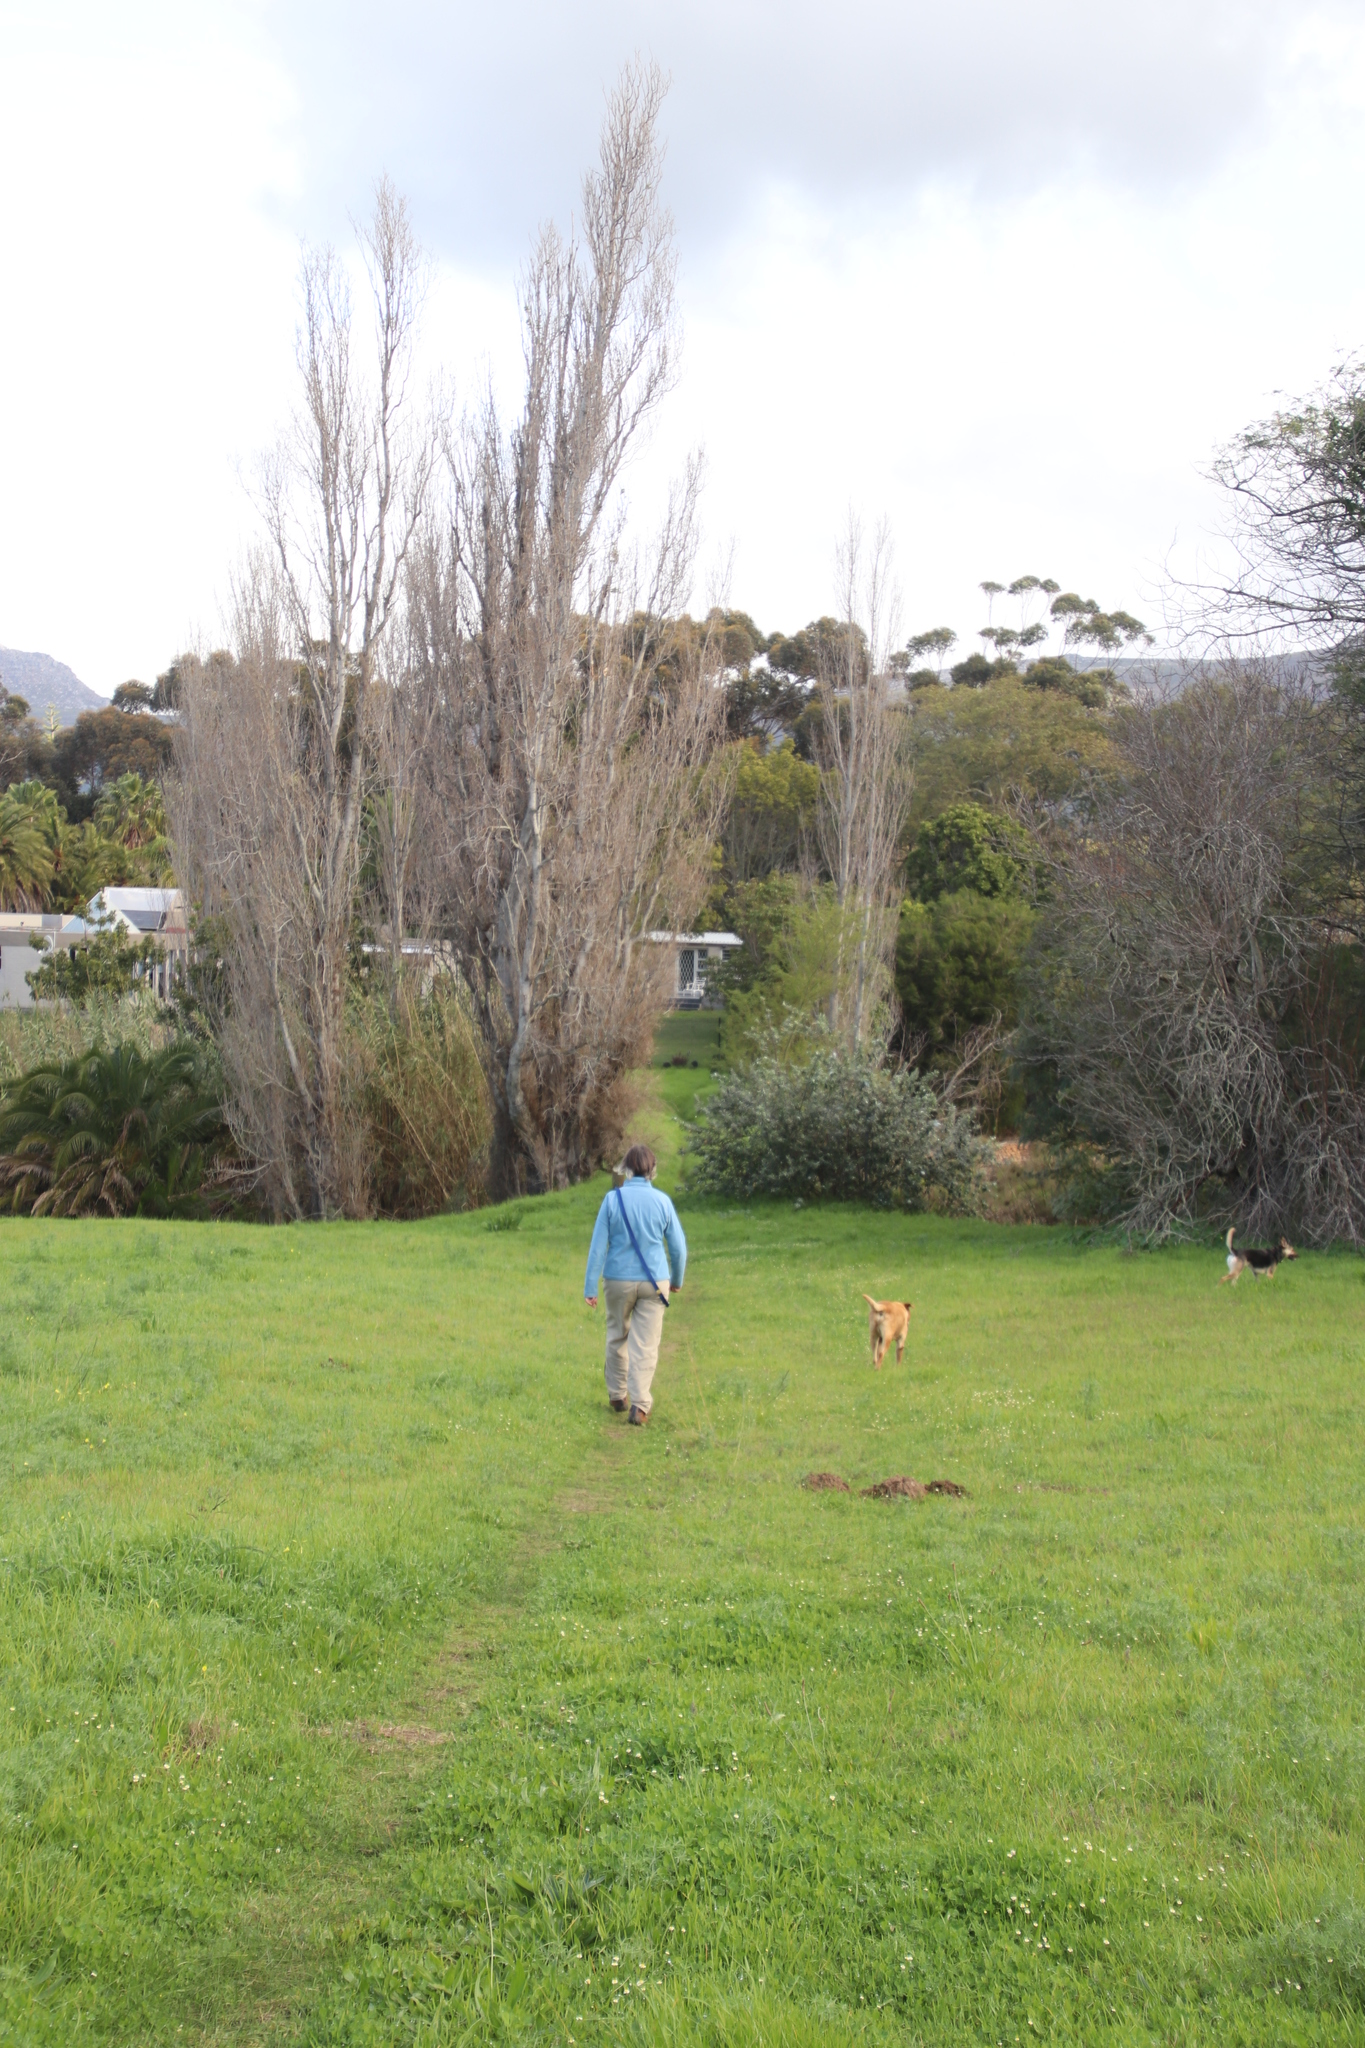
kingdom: Plantae
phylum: Tracheophyta
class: Magnoliopsida
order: Malpighiales
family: Salicaceae
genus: Populus
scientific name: Populus nigra
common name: Black poplar
